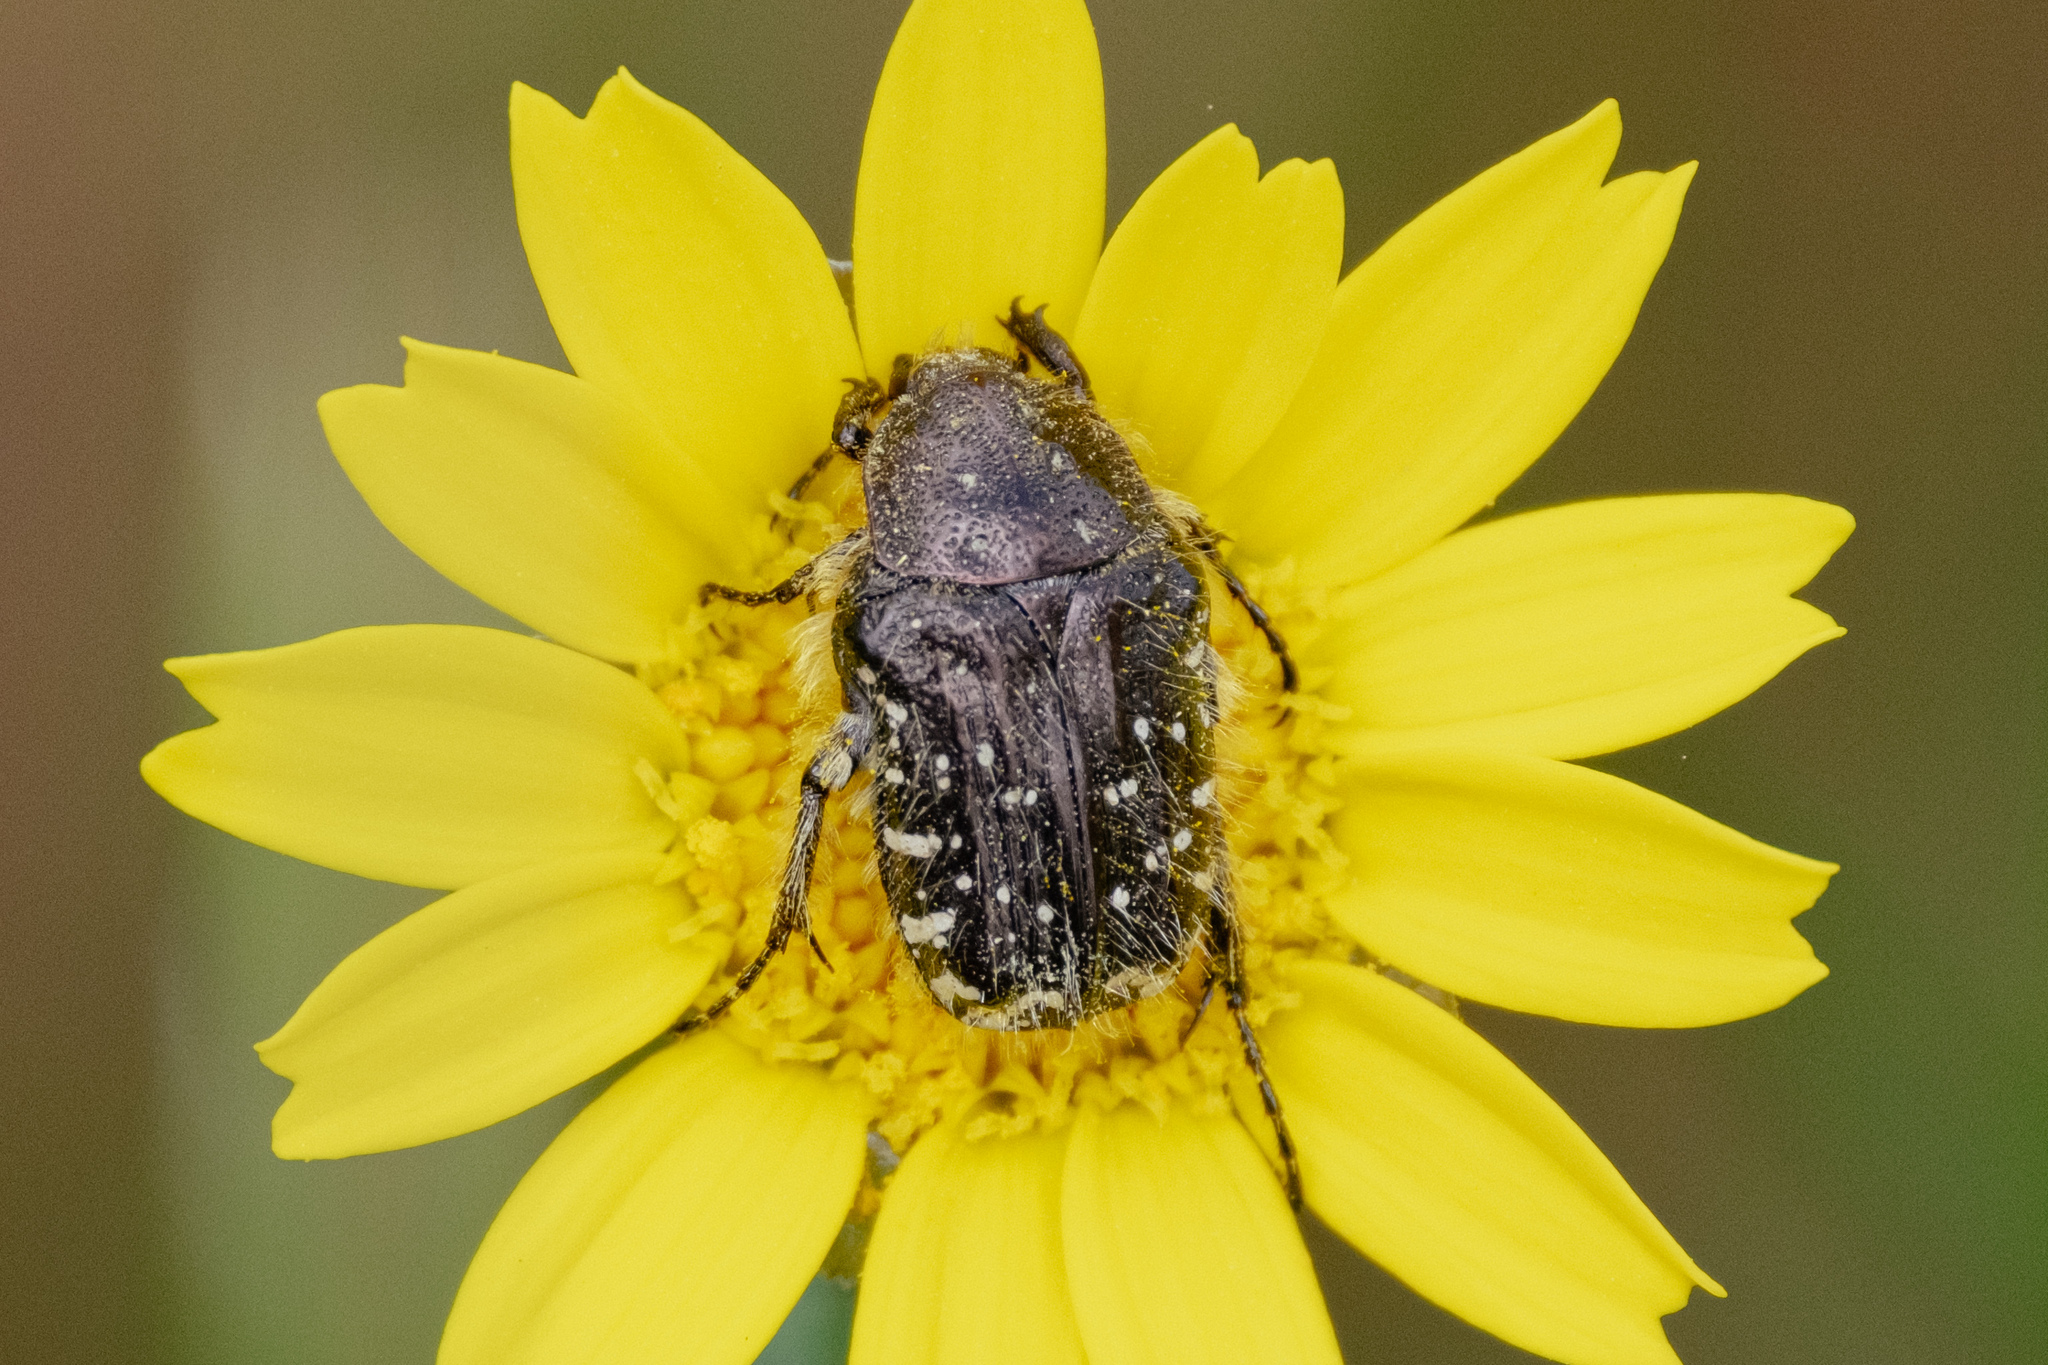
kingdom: Animalia
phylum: Arthropoda
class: Insecta
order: Coleoptera
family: Scarabaeidae
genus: Oxythyrea
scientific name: Oxythyrea funesta
